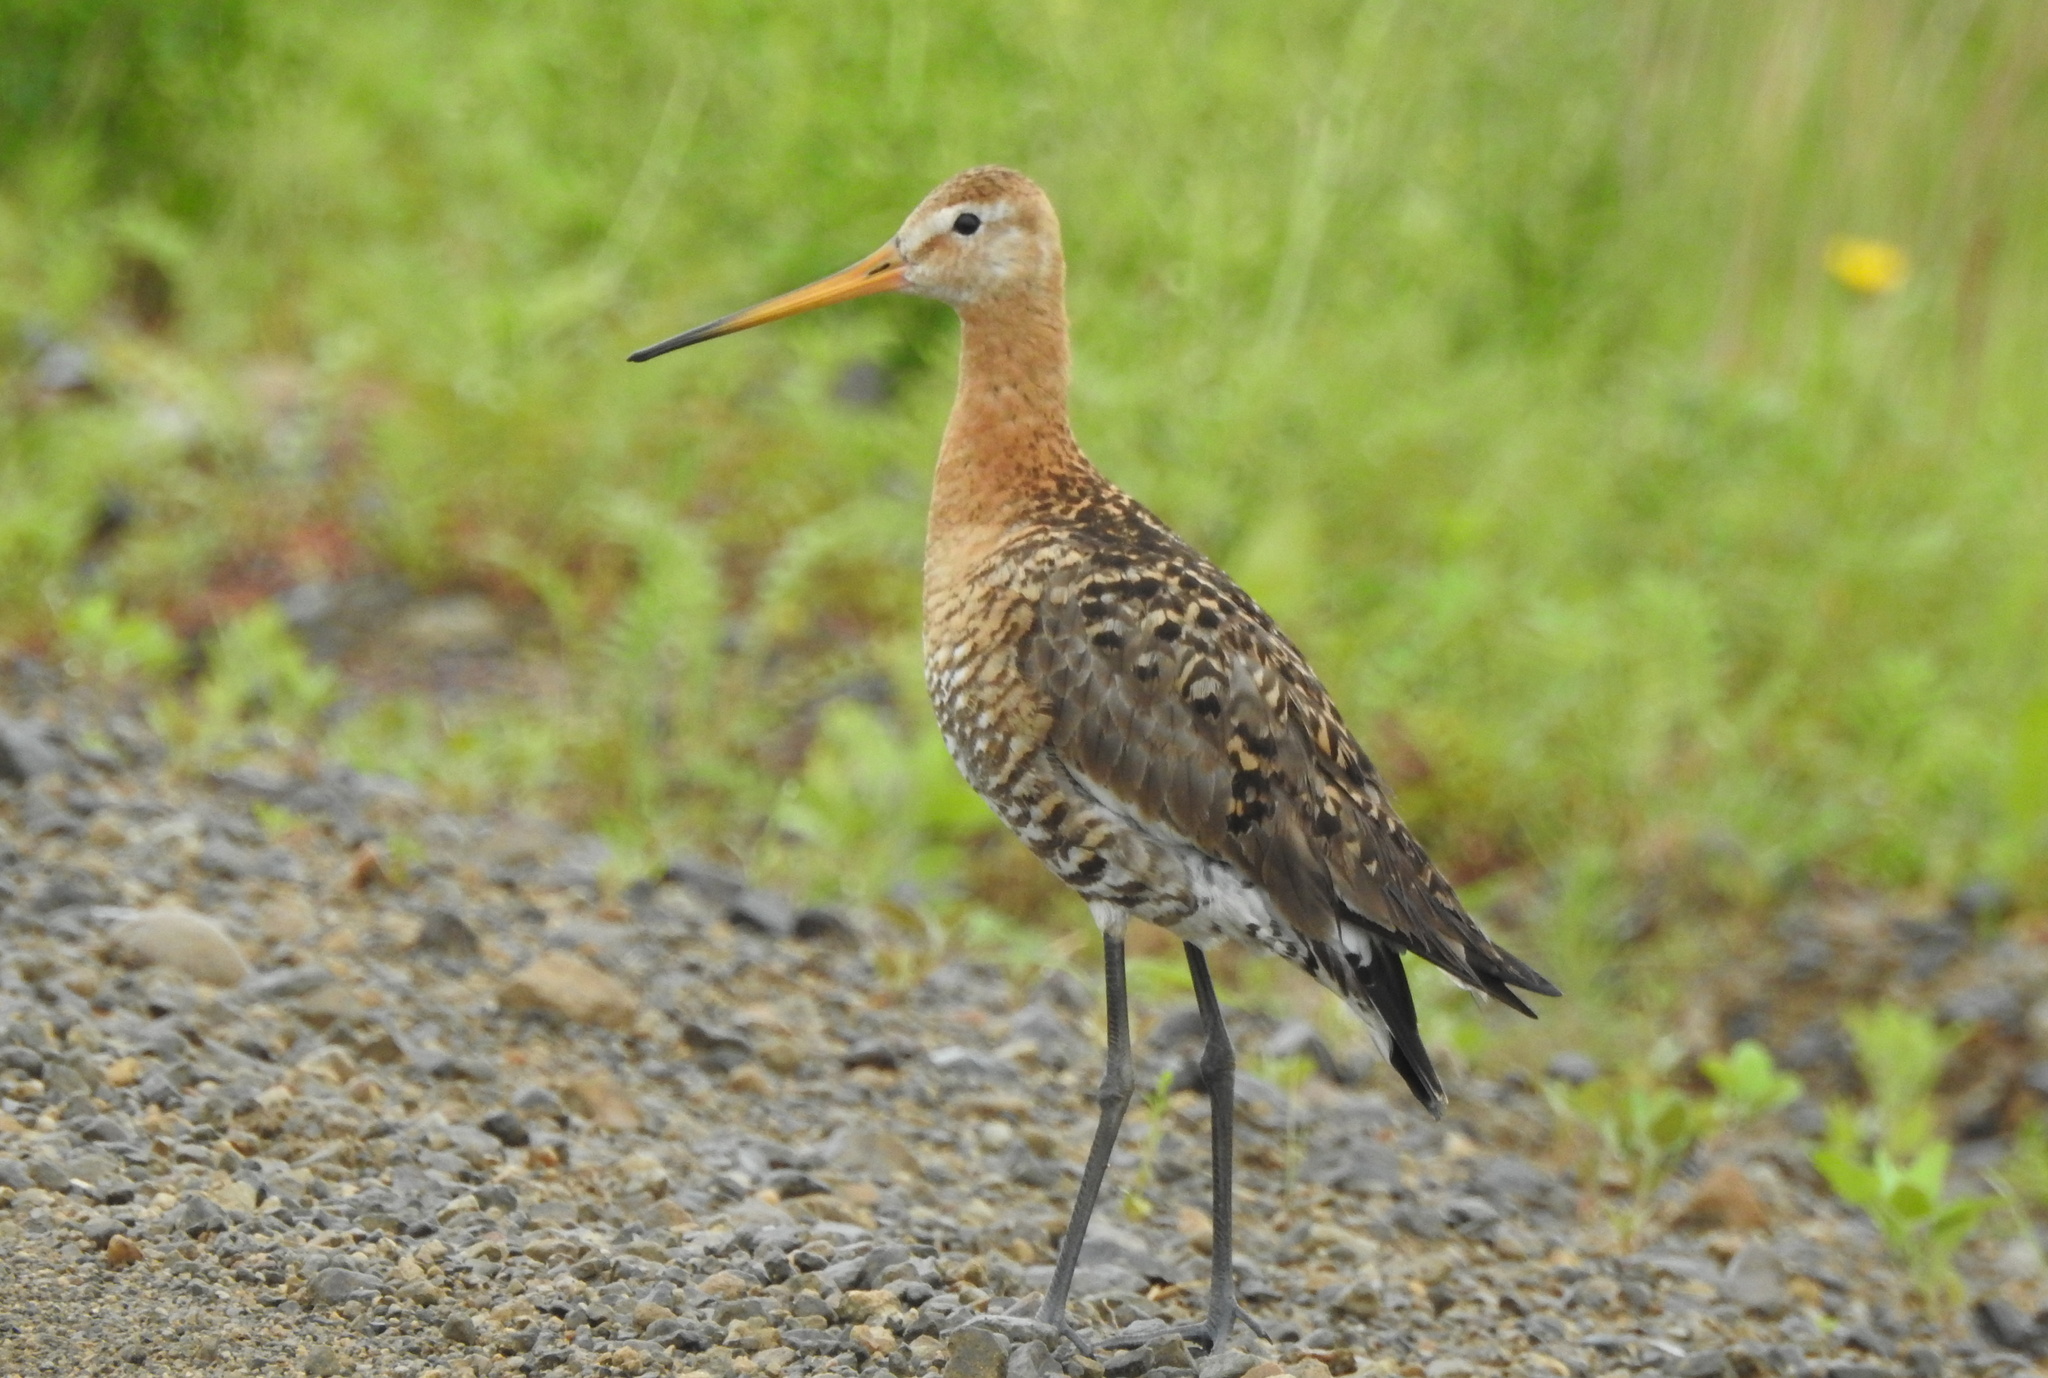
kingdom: Animalia
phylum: Chordata
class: Aves
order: Charadriiformes
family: Scolopacidae
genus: Limosa
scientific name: Limosa limosa
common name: Black-tailed godwit
